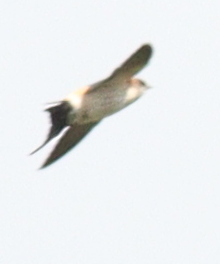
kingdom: Animalia
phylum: Chordata
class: Aves
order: Passeriformes
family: Hirundinidae
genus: Cecropis
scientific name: Cecropis daurica
